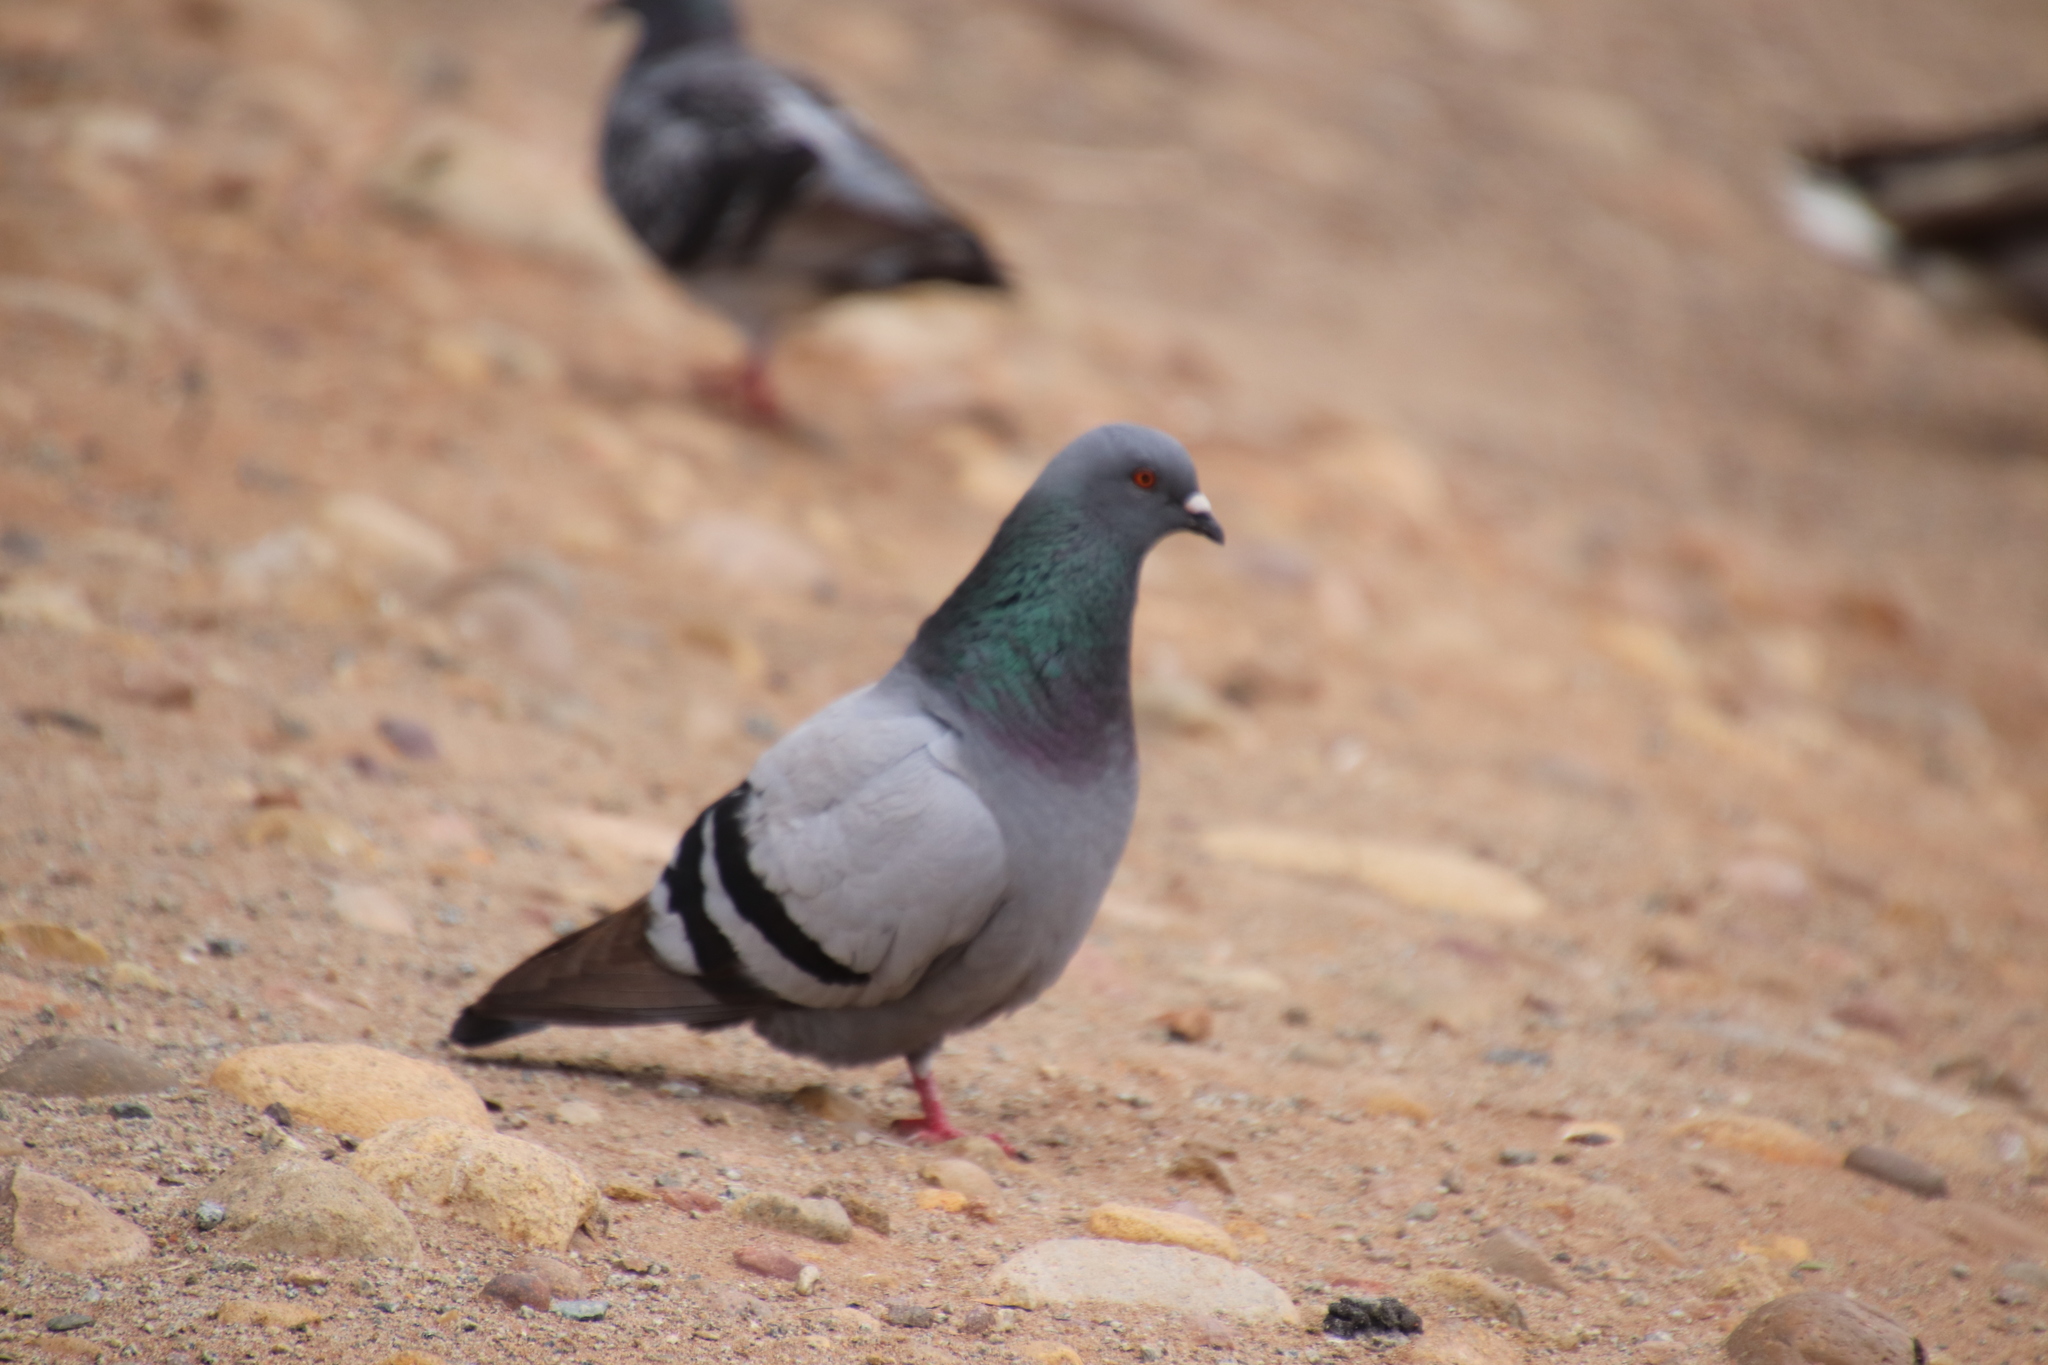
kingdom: Animalia
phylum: Chordata
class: Aves
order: Columbiformes
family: Columbidae
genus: Columba
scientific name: Columba livia
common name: Rock pigeon
